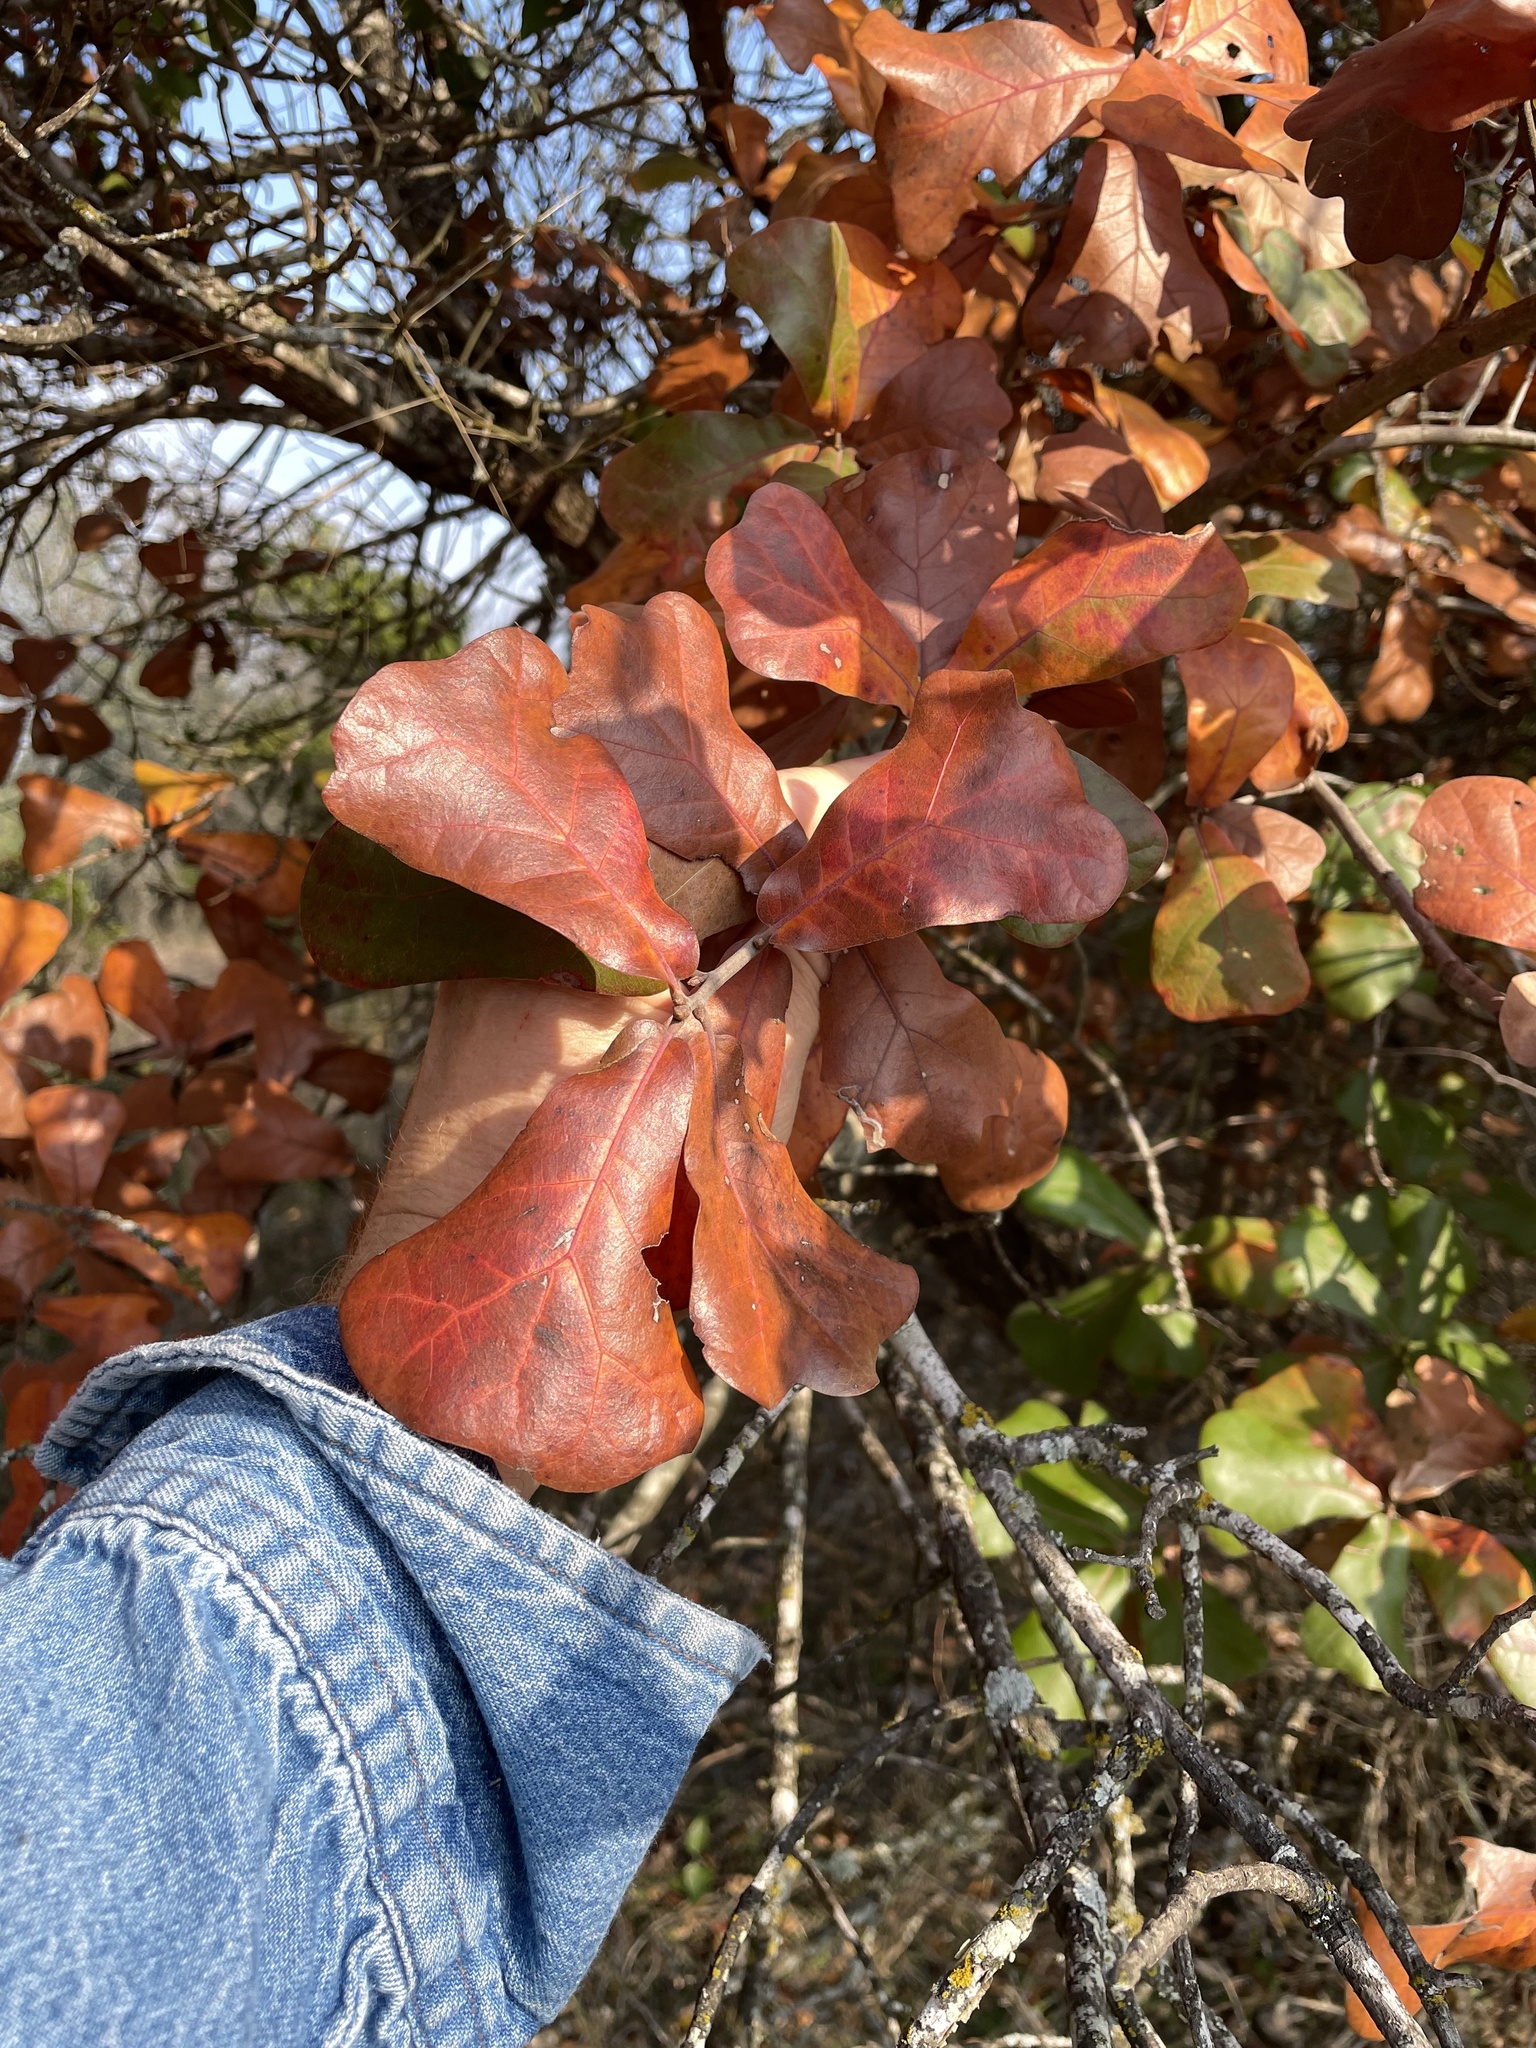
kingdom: Plantae
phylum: Tracheophyta
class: Magnoliopsida
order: Fagales
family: Fagaceae
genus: Quercus
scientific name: Quercus marilandica
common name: Blackjack oak
